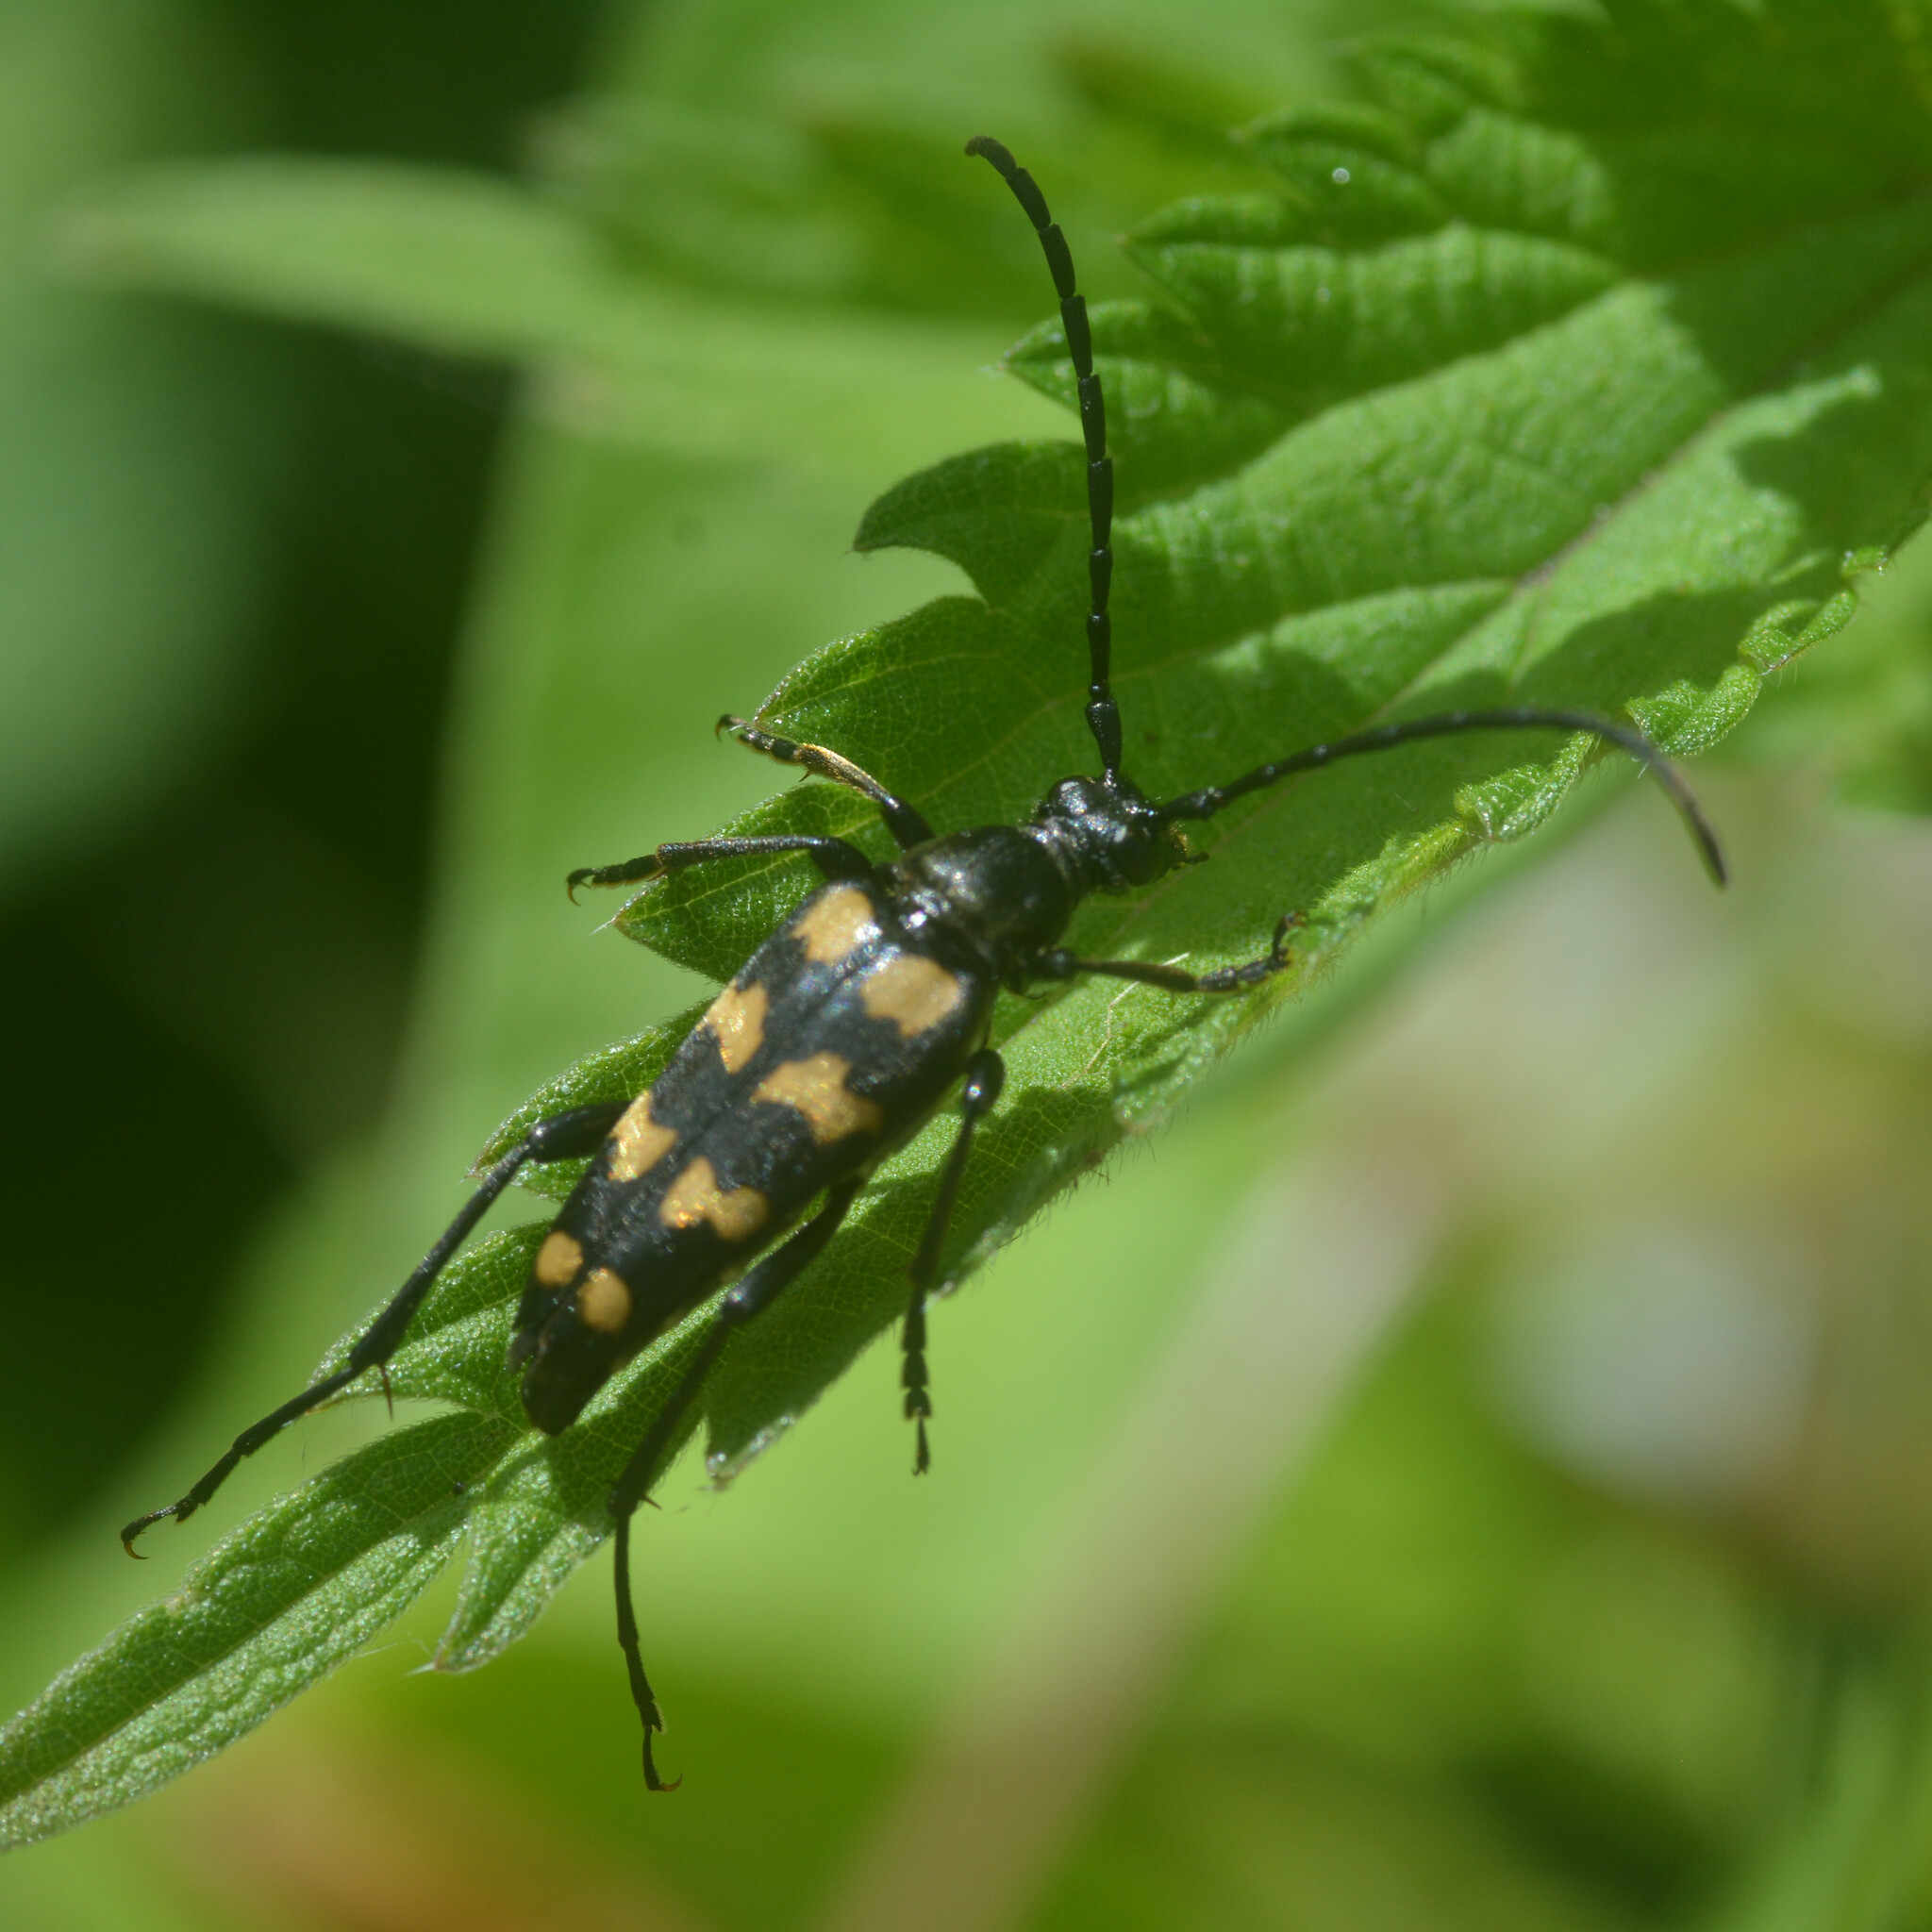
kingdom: Animalia
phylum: Arthropoda
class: Insecta
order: Coleoptera
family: Cerambycidae
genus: Leptura
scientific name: Leptura quadrifasciata
